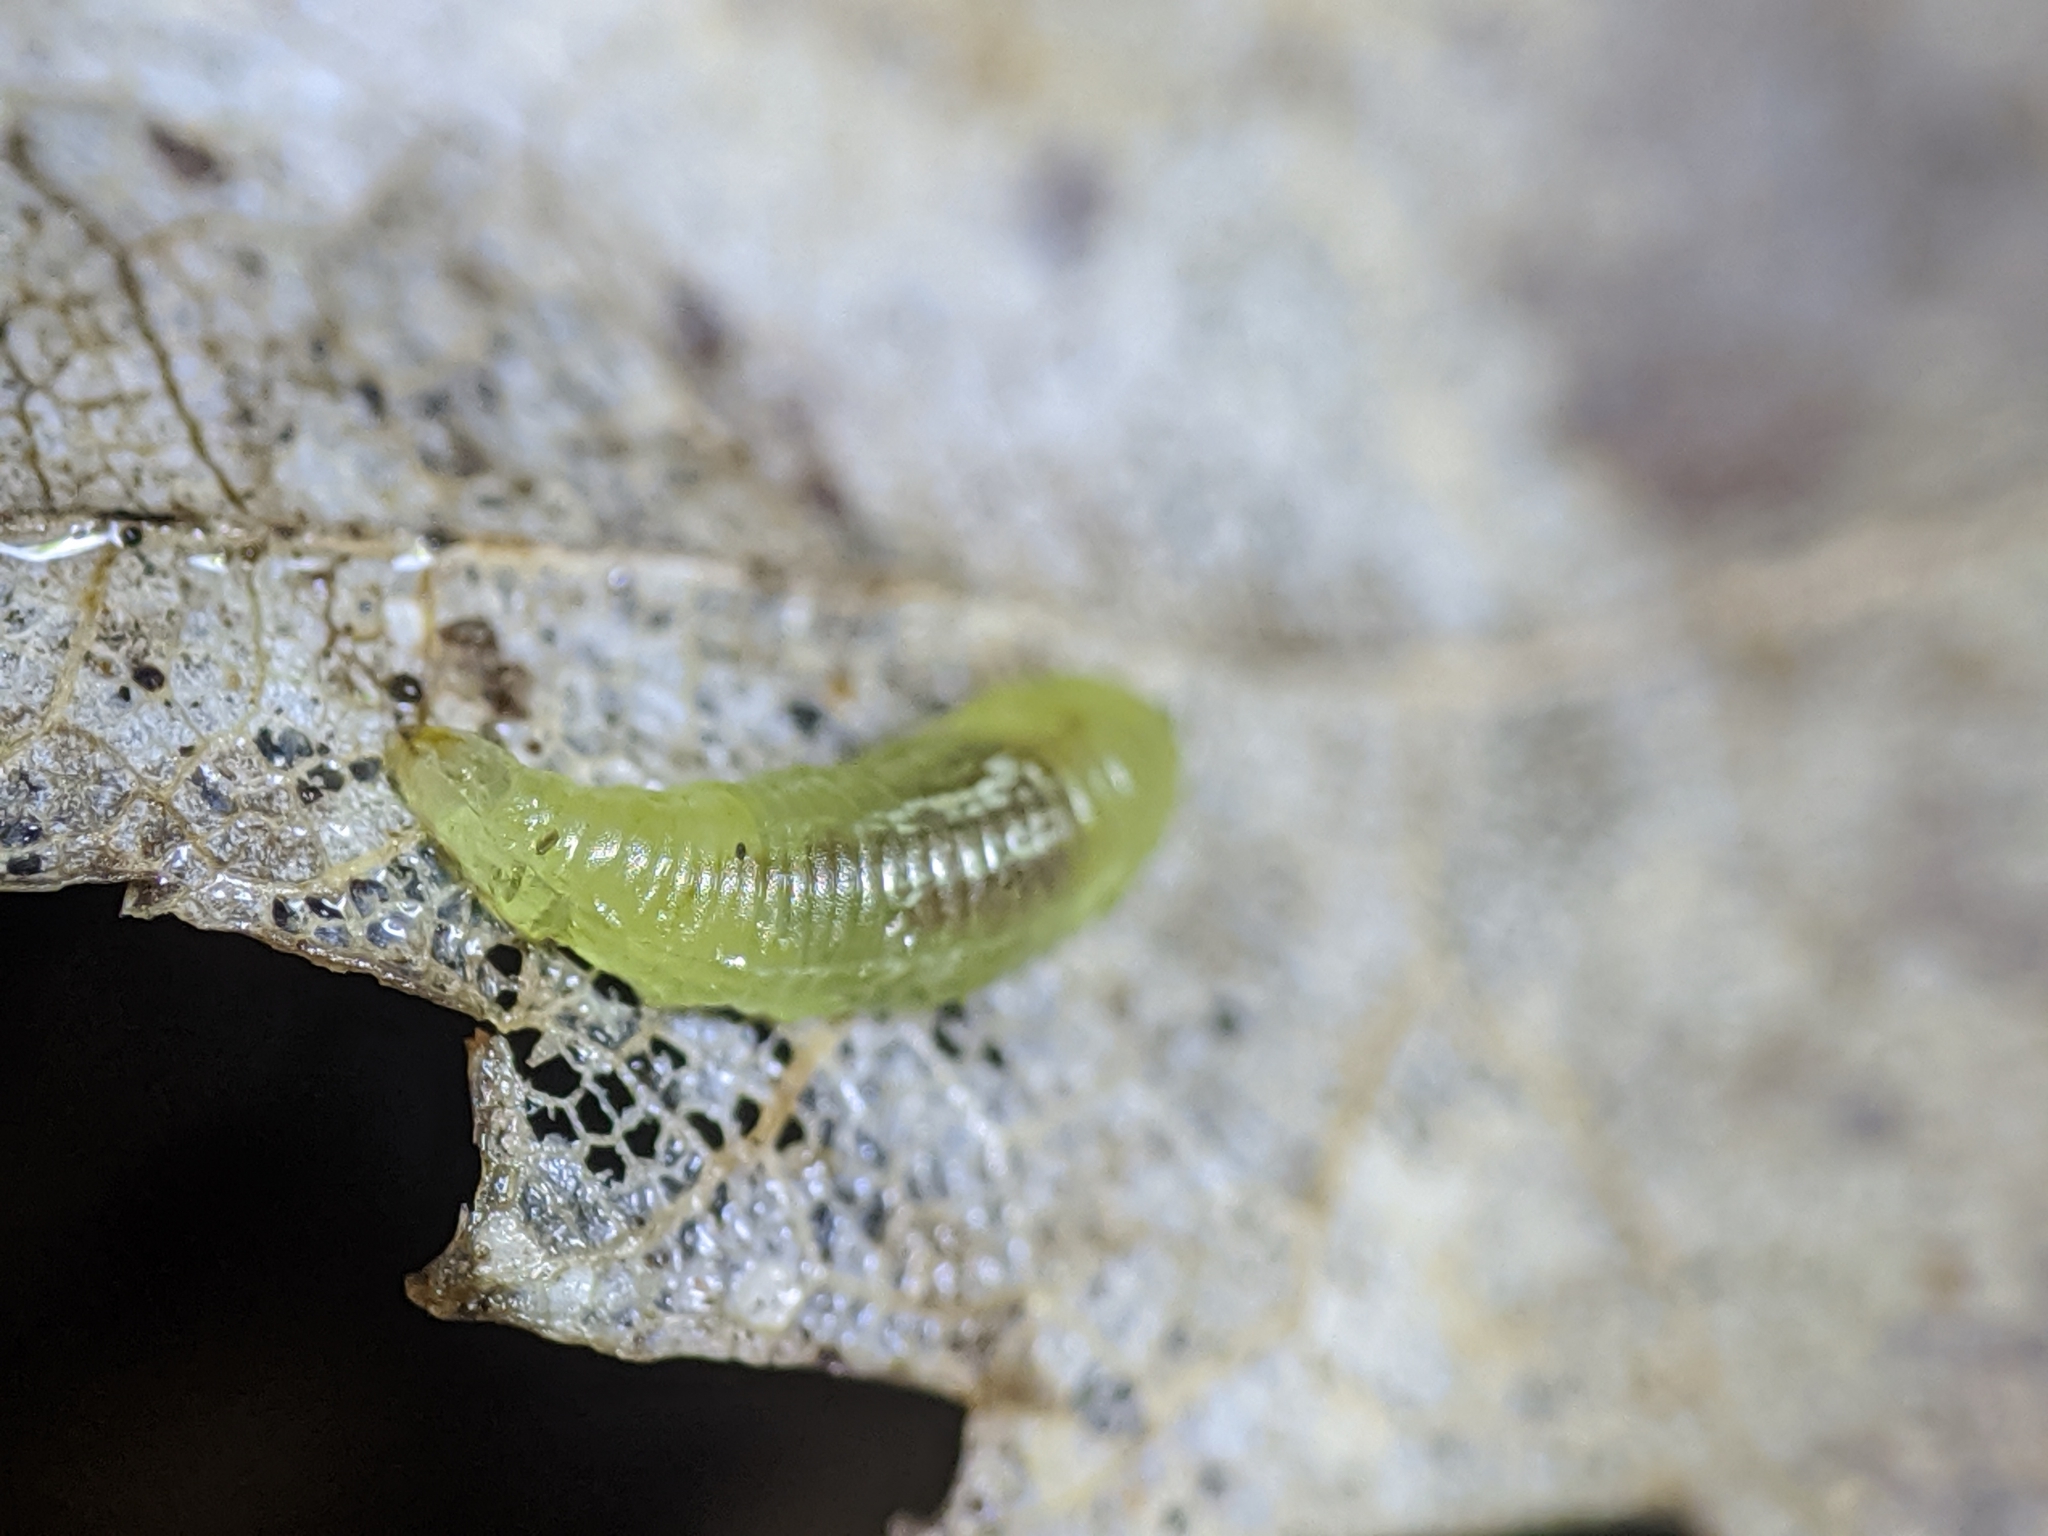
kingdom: Animalia
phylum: Arthropoda
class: Insecta
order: Diptera
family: Syrphidae
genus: Toxomerus
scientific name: Toxomerus
